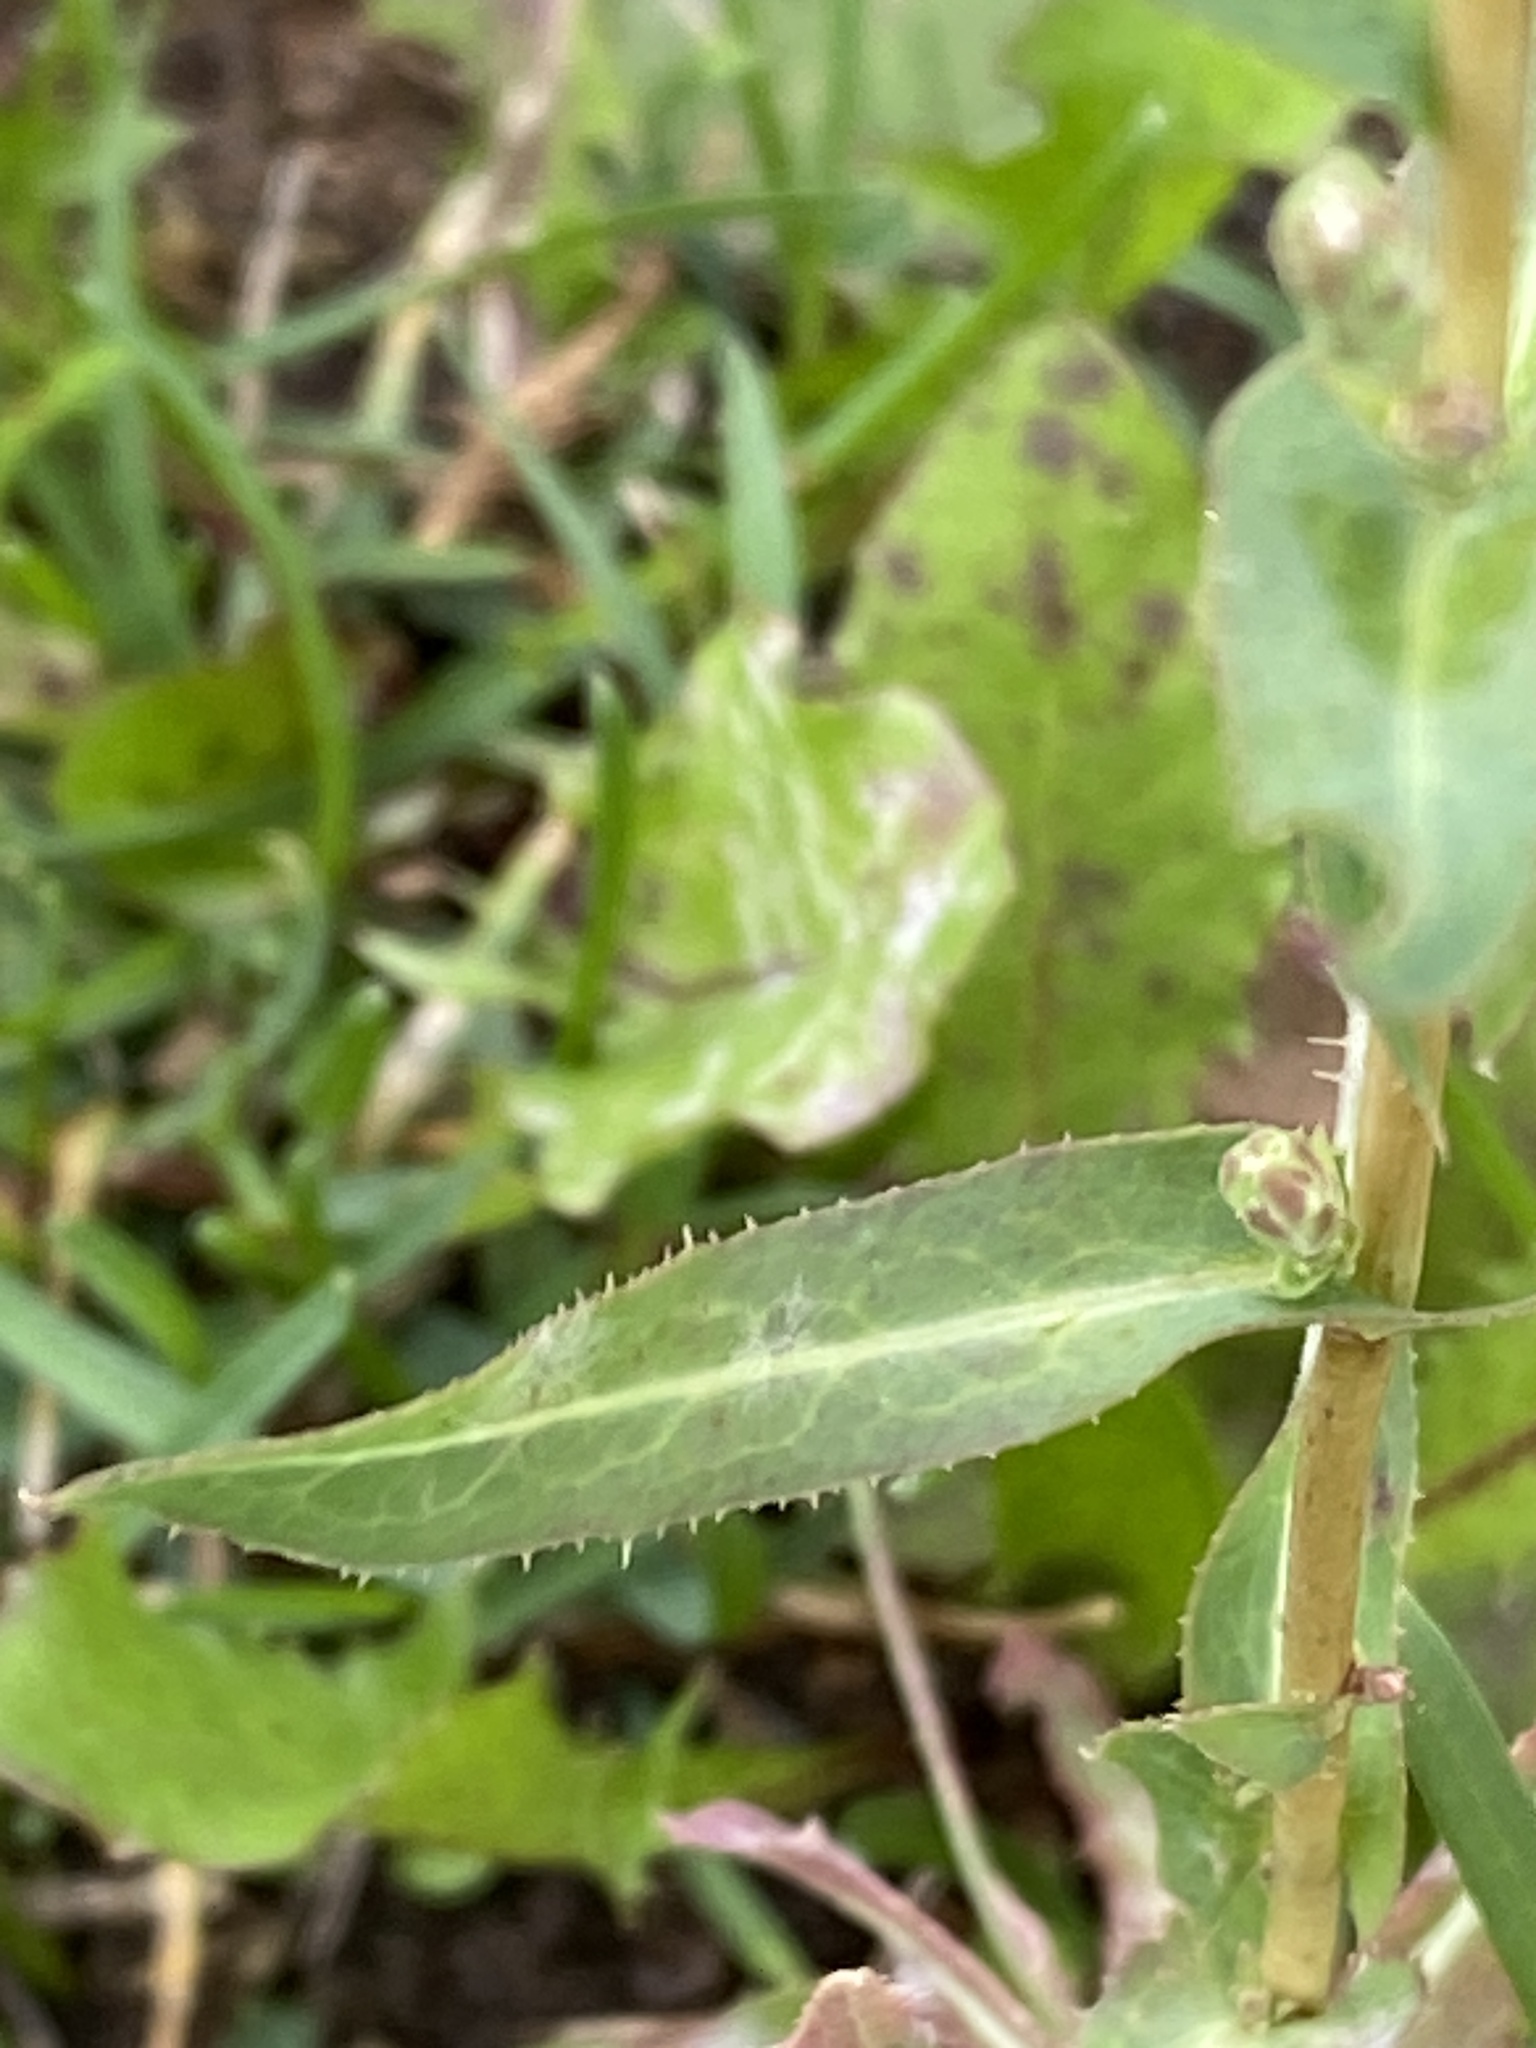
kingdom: Plantae
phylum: Tracheophyta
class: Magnoliopsida
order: Asterales
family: Asteraceae
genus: Lactuca
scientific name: Lactuca serriola
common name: Prickly lettuce
